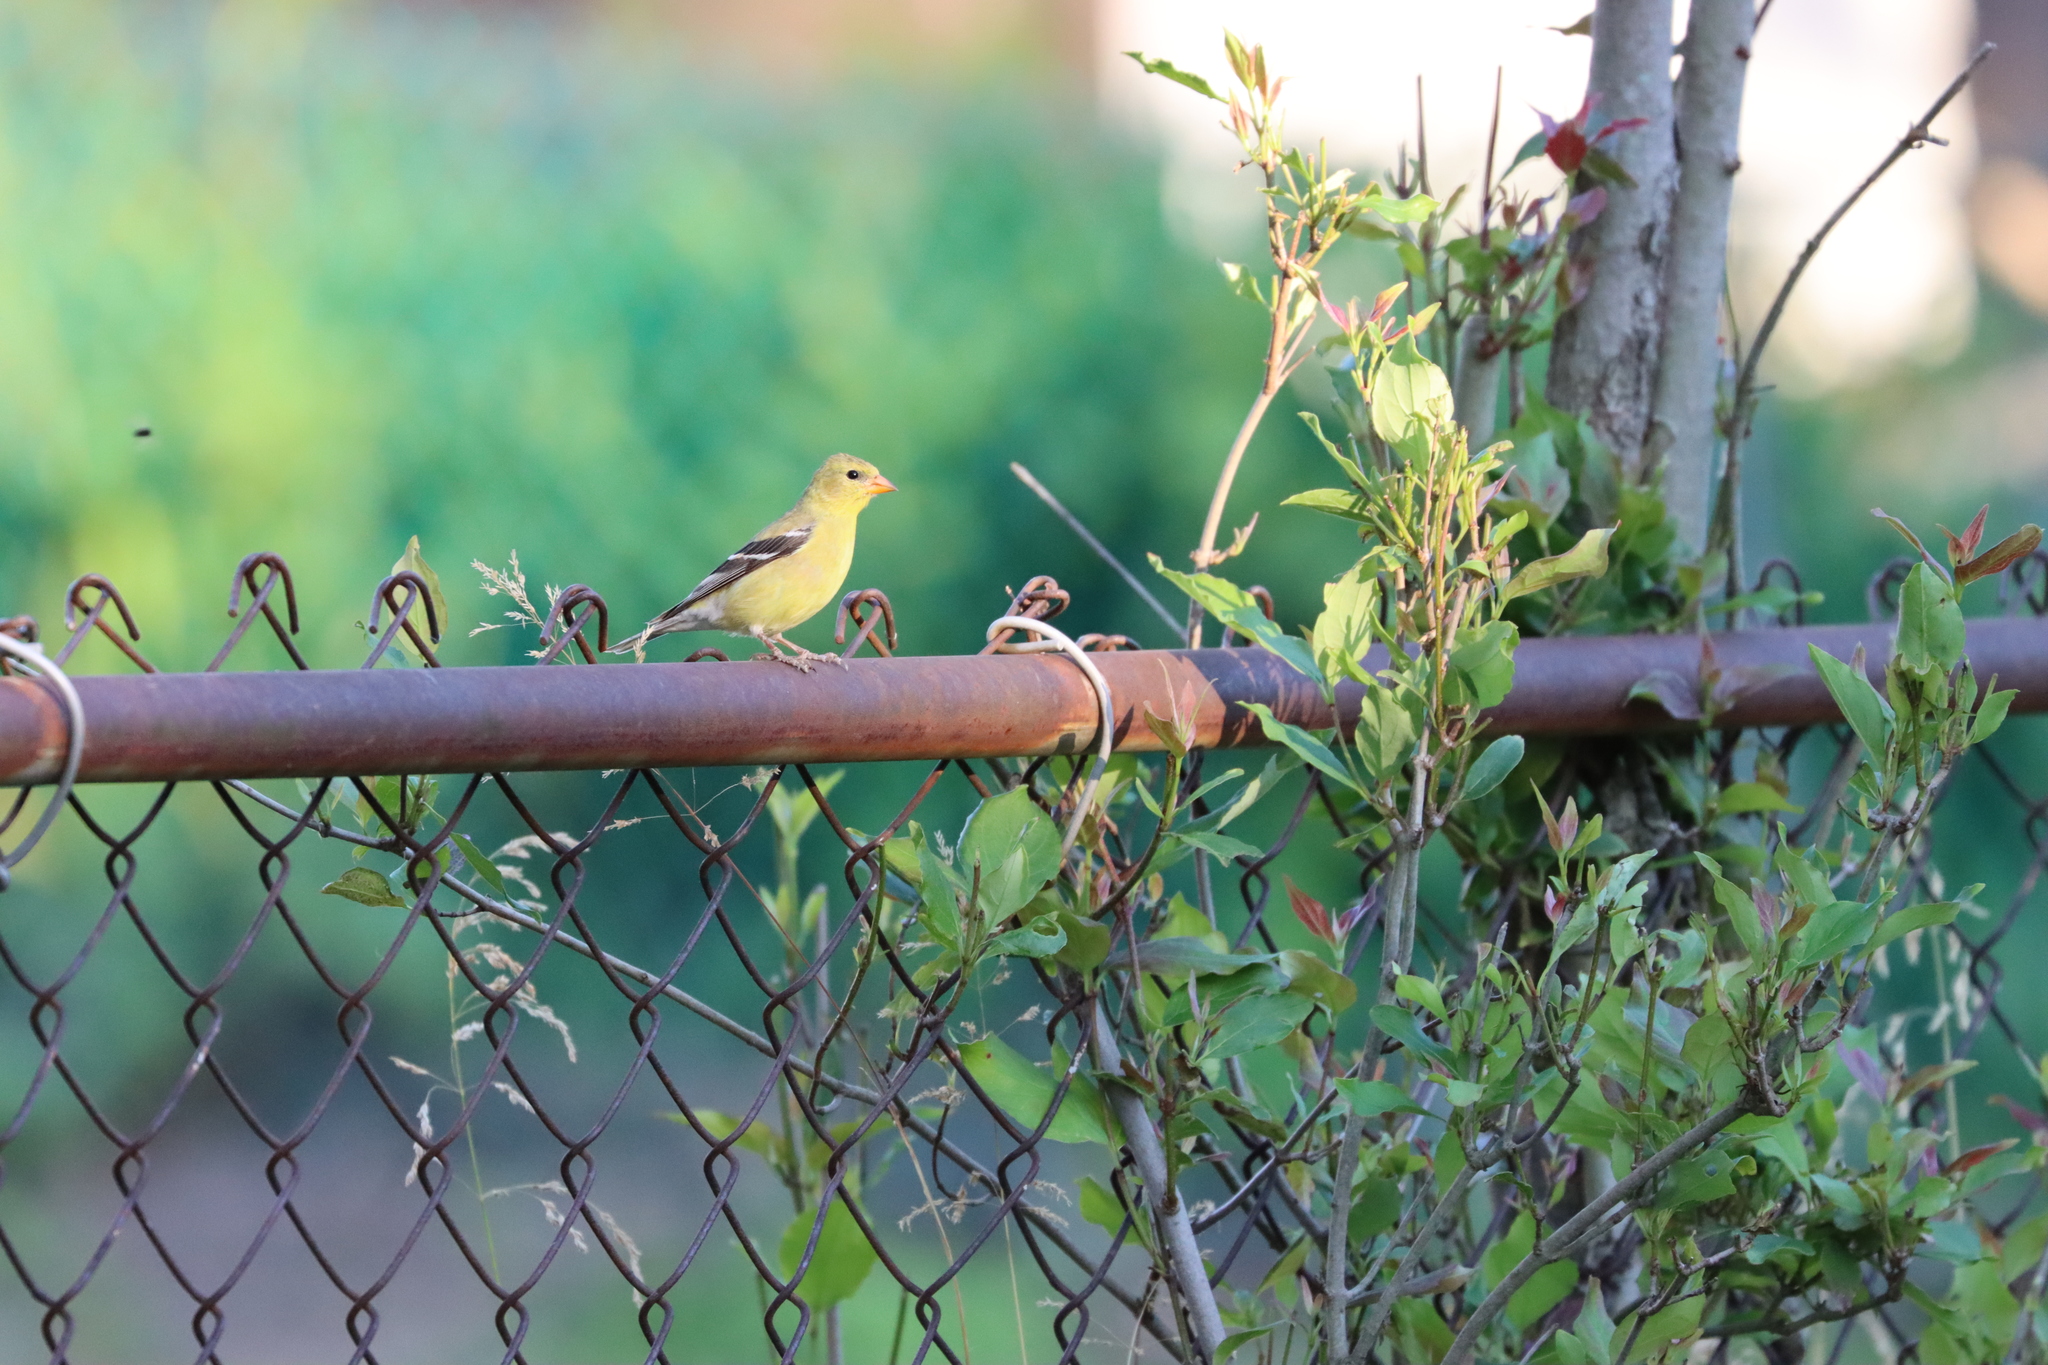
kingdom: Animalia
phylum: Chordata
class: Aves
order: Passeriformes
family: Fringillidae
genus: Spinus
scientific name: Spinus tristis
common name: American goldfinch
